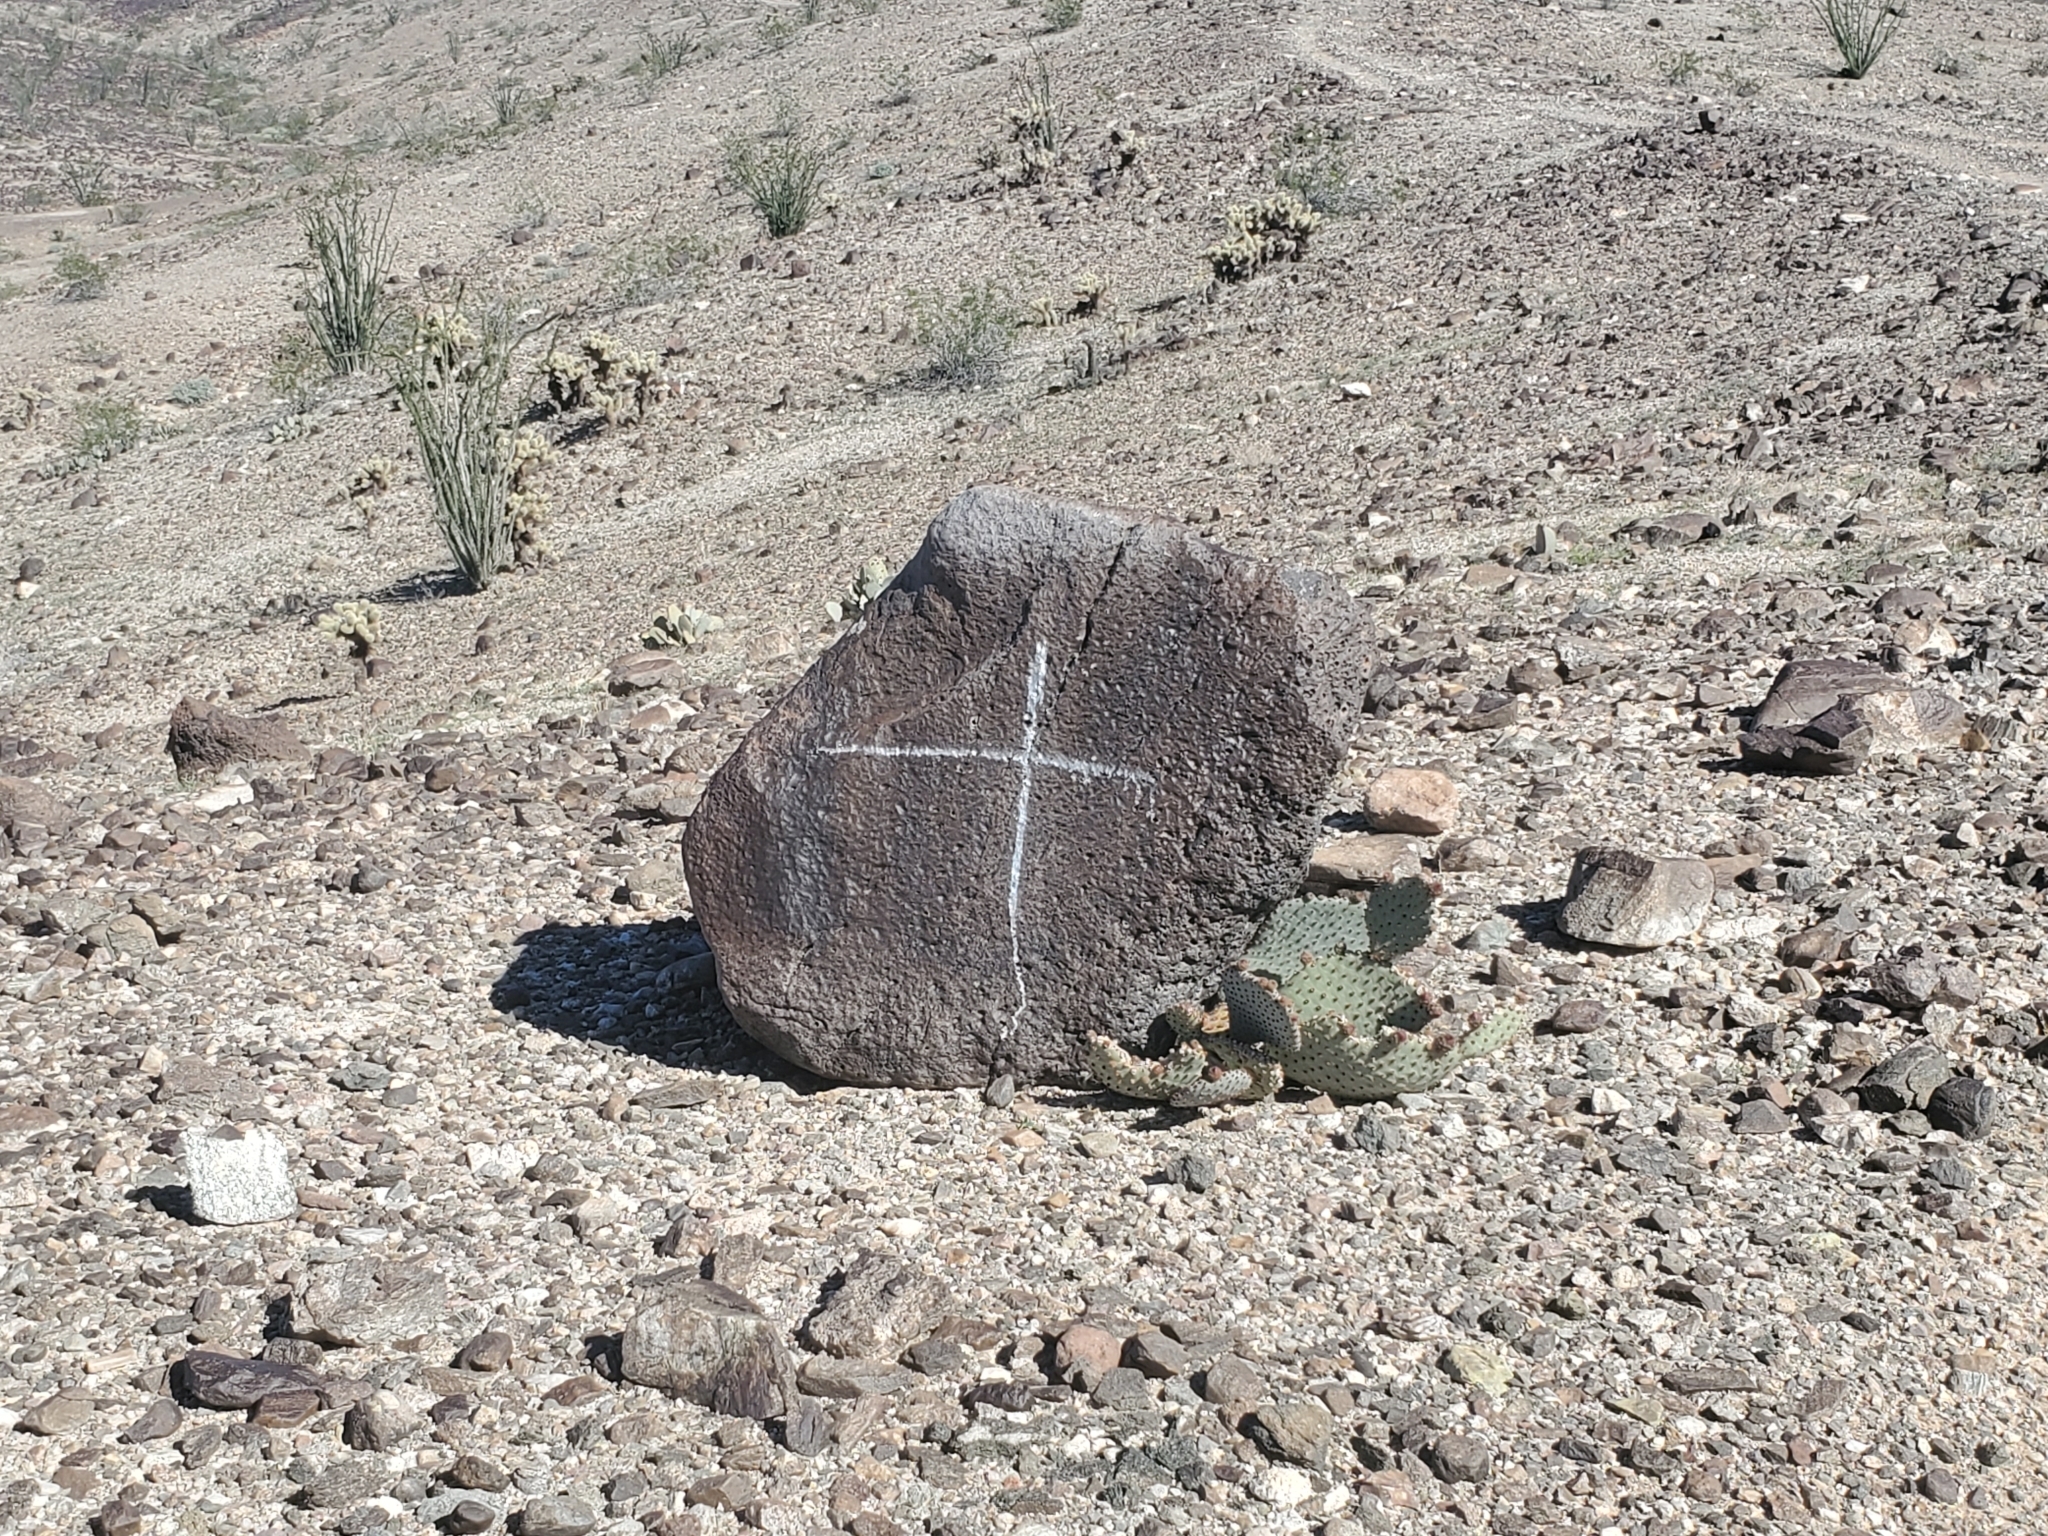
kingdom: Plantae
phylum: Tracheophyta
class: Magnoliopsida
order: Caryophyllales
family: Cactaceae
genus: Opuntia
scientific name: Opuntia basilaris
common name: Beavertail prickly-pear
